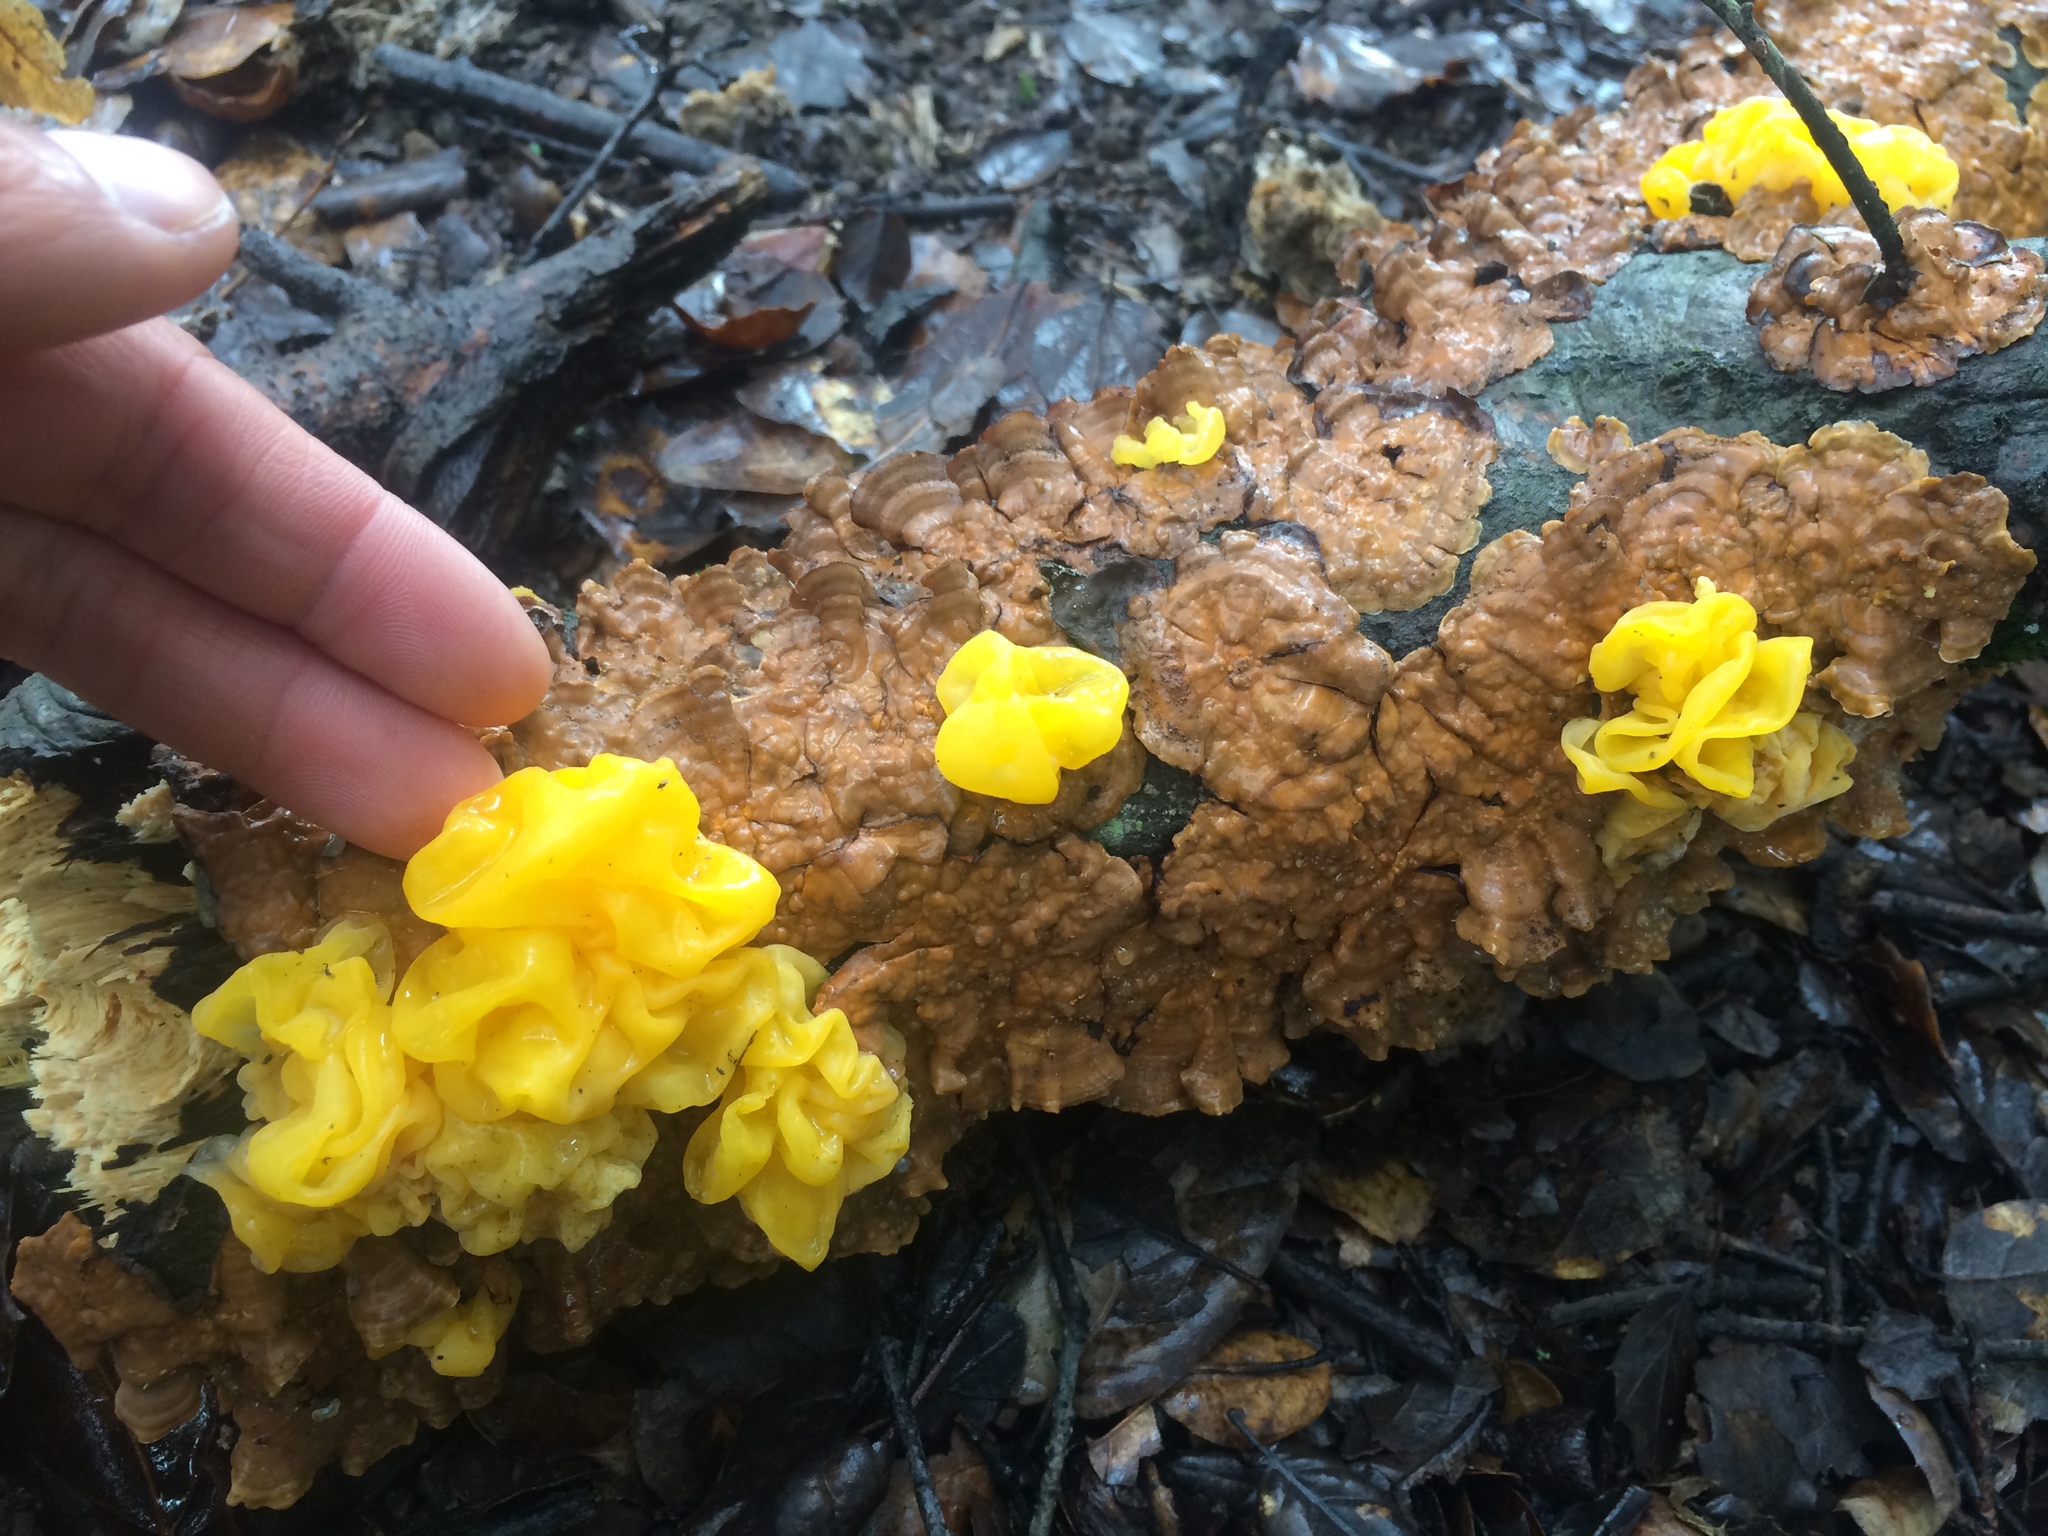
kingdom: Fungi
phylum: Basidiomycota
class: Tremellomycetes
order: Tremellales
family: Naemateliaceae
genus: Naematelia
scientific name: Naematelia aurantia
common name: Golden ear
